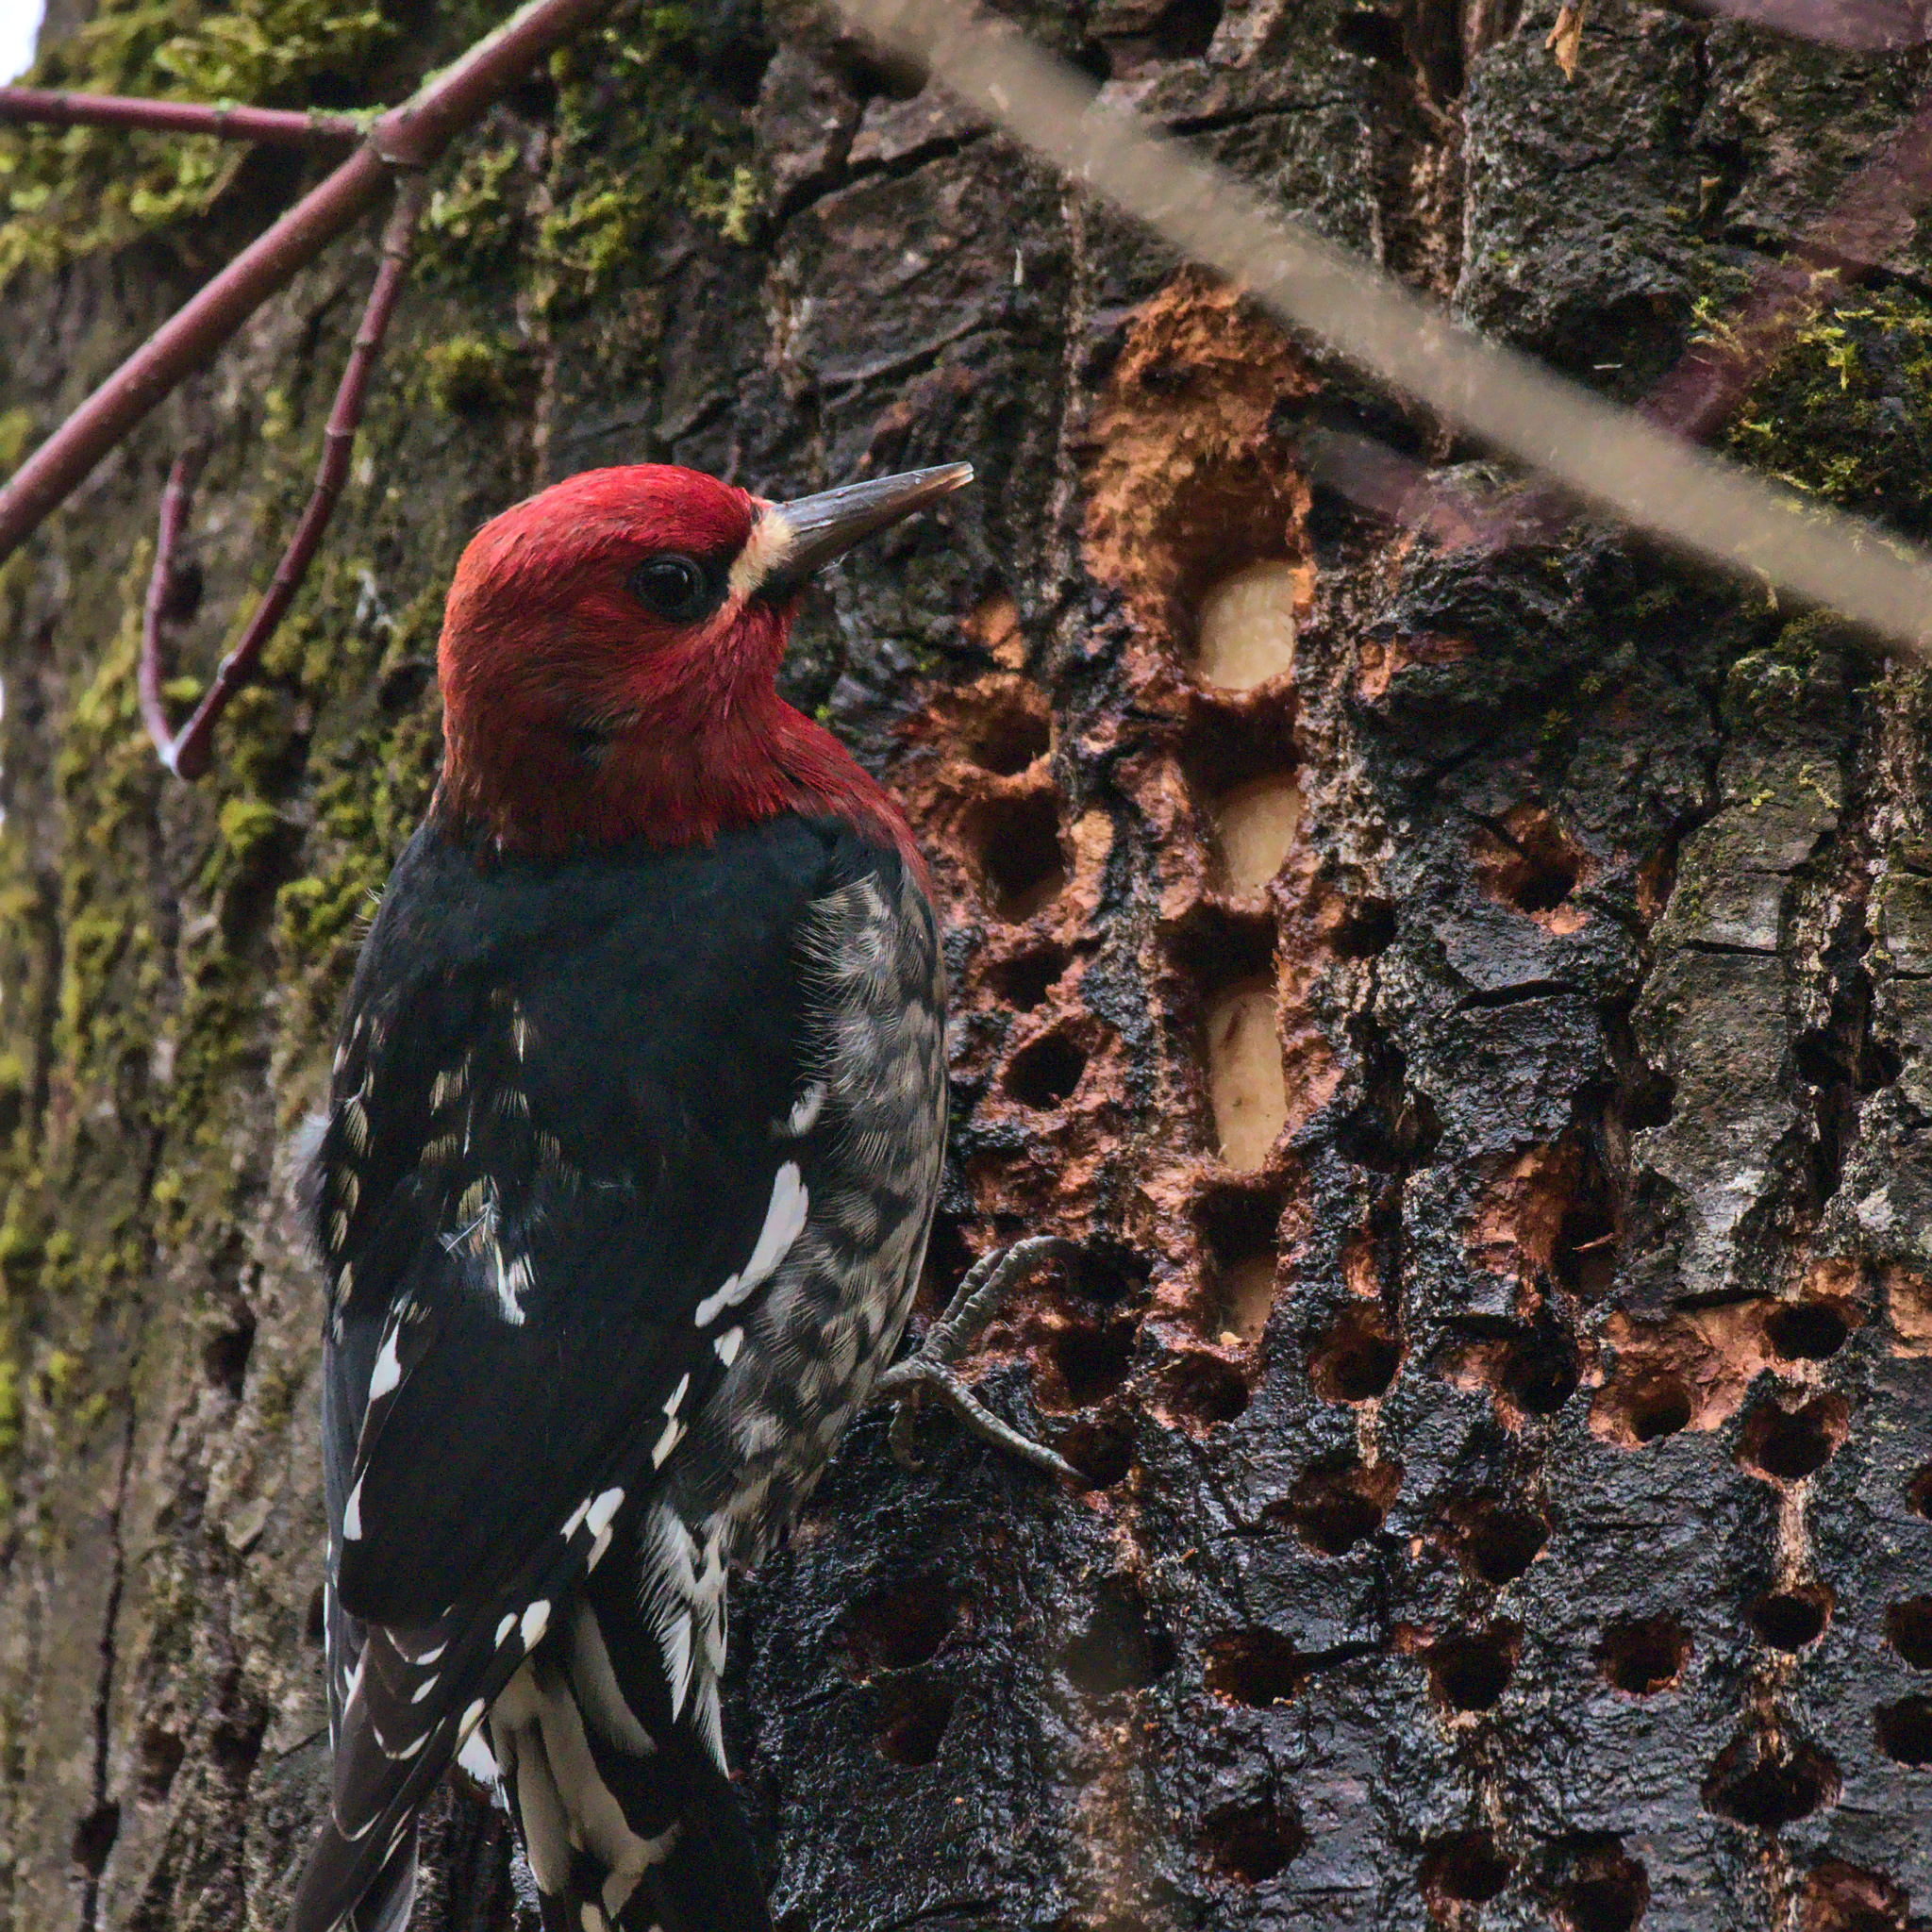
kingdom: Animalia
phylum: Chordata
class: Aves
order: Piciformes
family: Picidae
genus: Sphyrapicus
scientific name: Sphyrapicus ruber
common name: Red-breasted sapsucker
